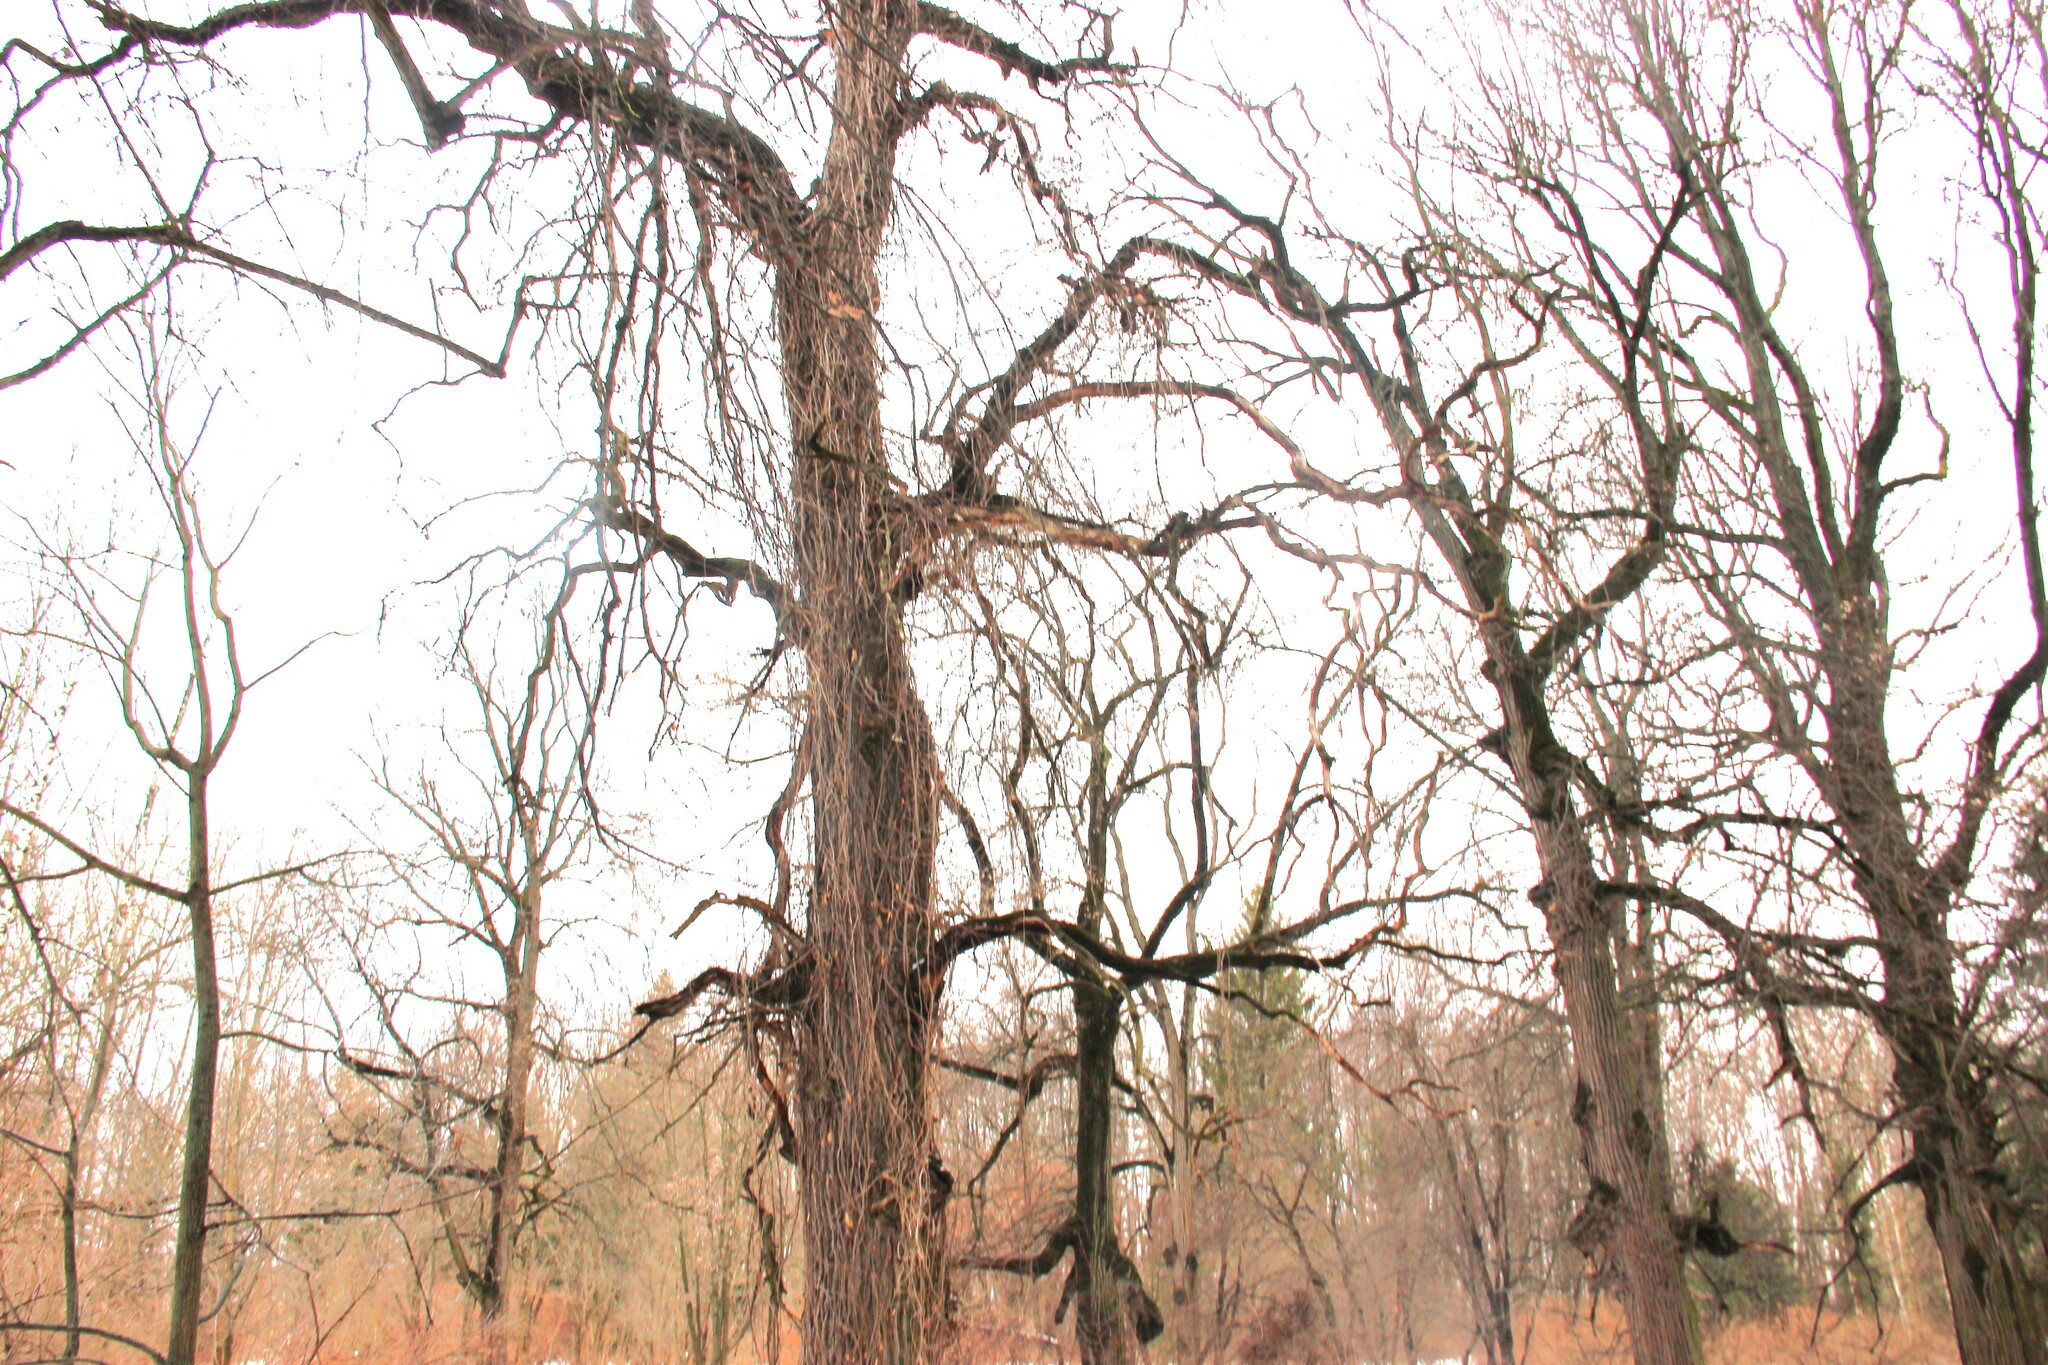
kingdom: Plantae
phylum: Tracheophyta
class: Magnoliopsida
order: Fagales
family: Fagaceae
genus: Quercus
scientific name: Quercus robur
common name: Pedunculate oak
